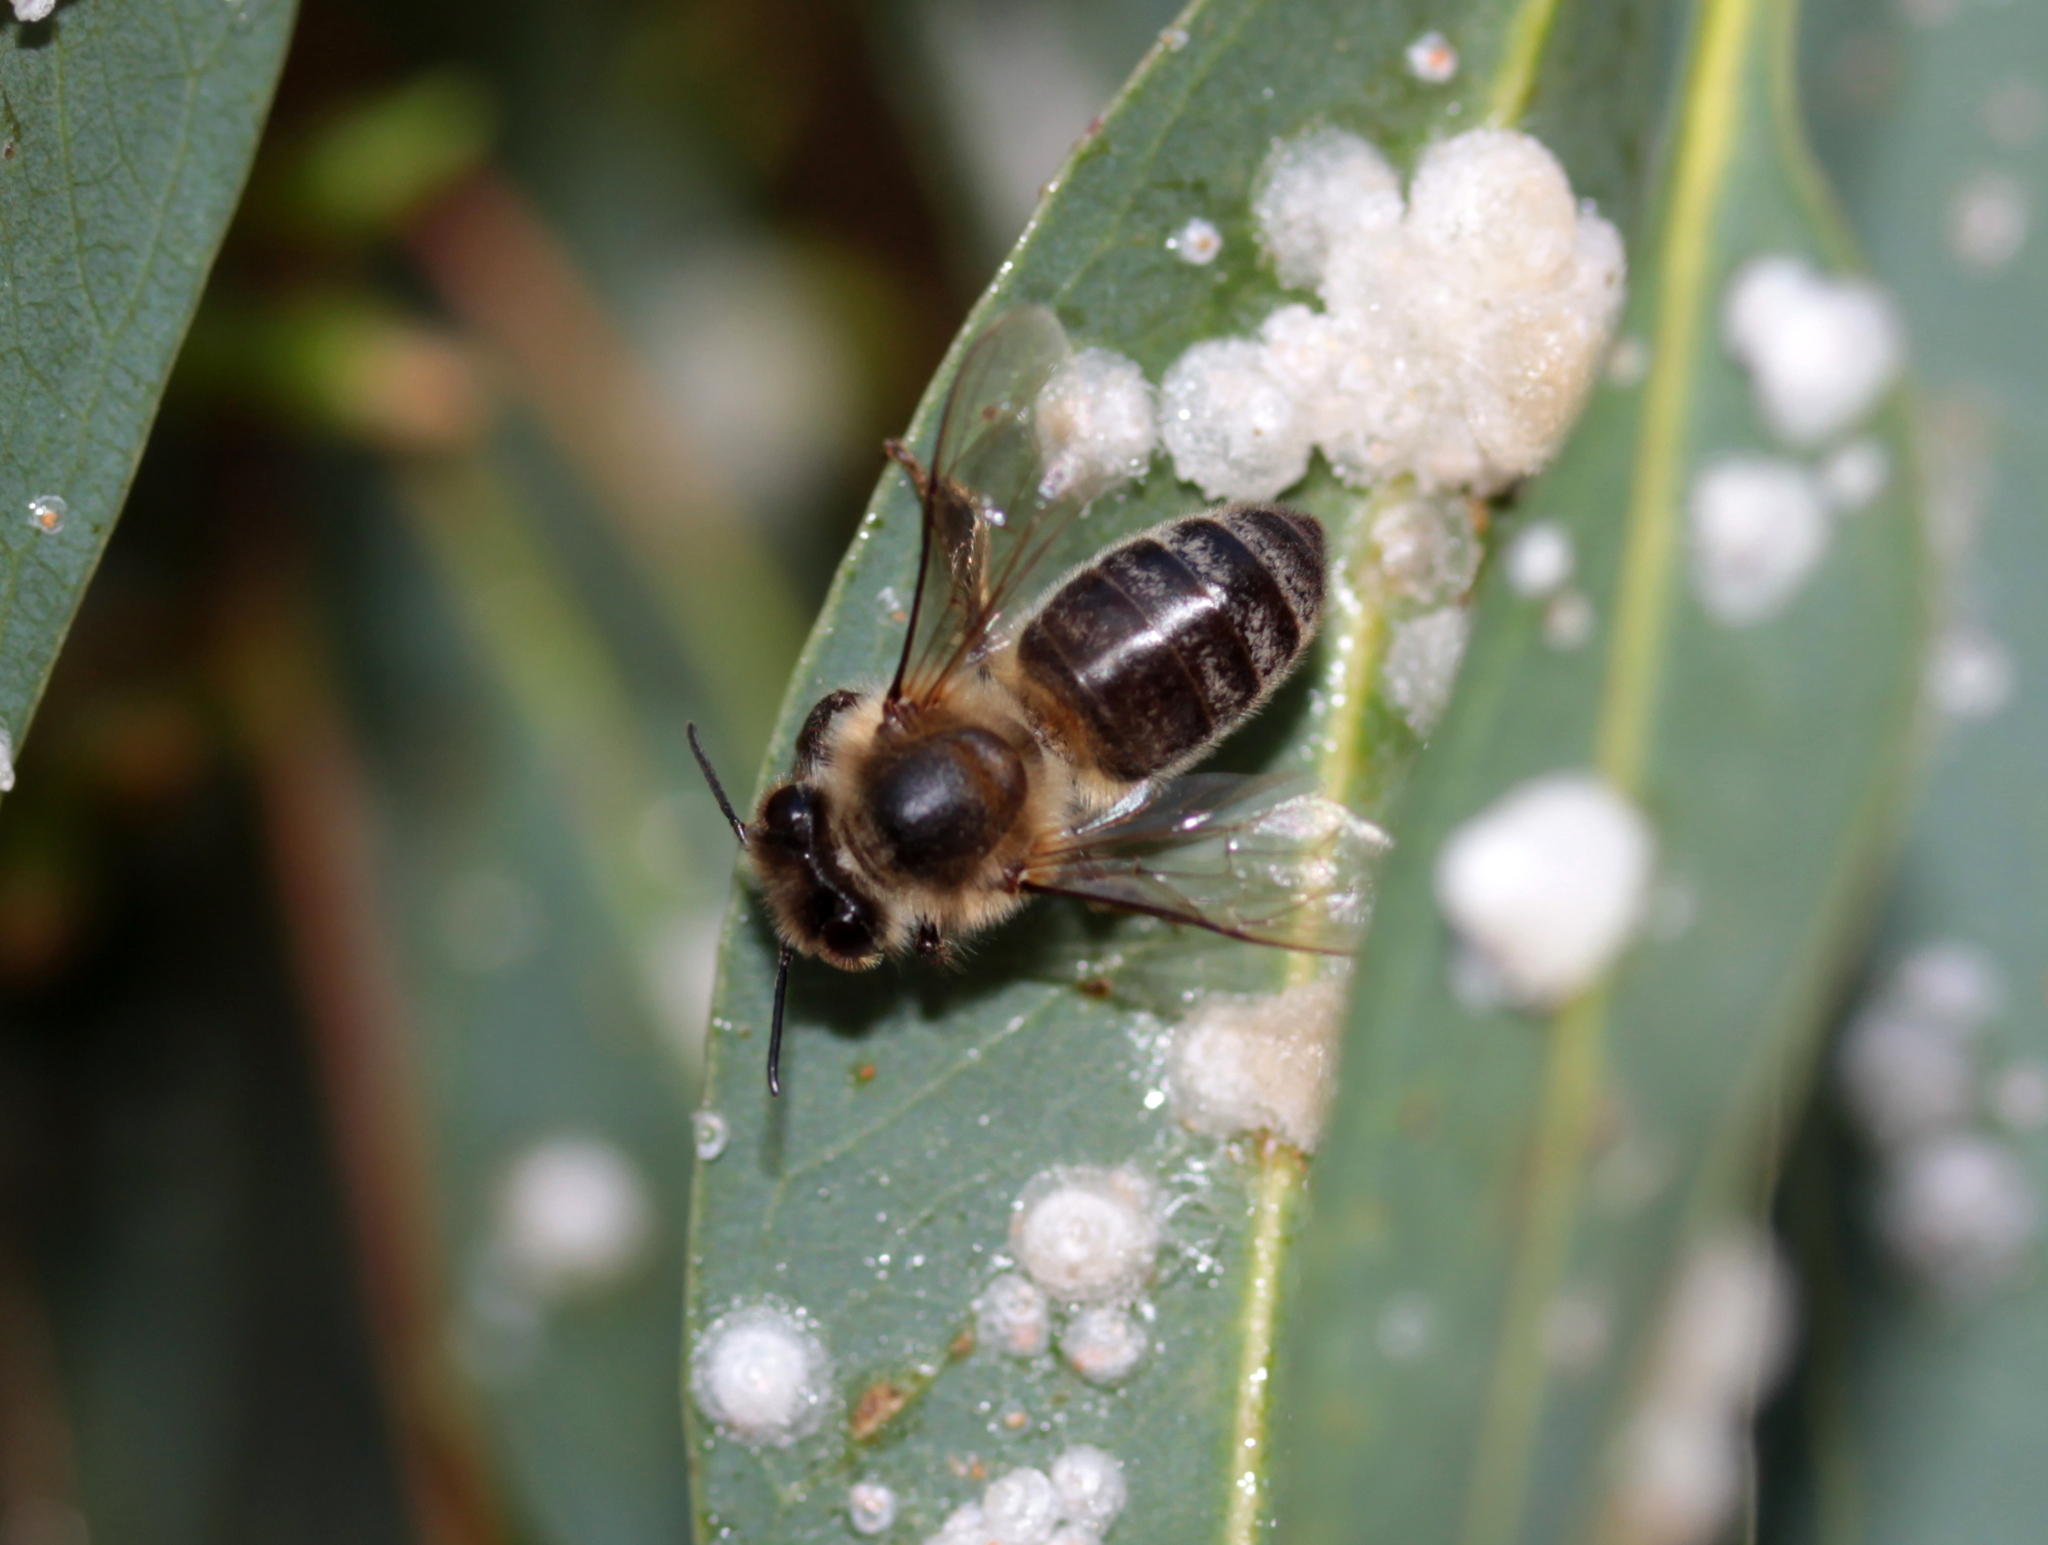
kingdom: Animalia
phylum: Arthropoda
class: Insecta
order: Hymenoptera
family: Apidae
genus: Apis
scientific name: Apis mellifera
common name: Honey bee
